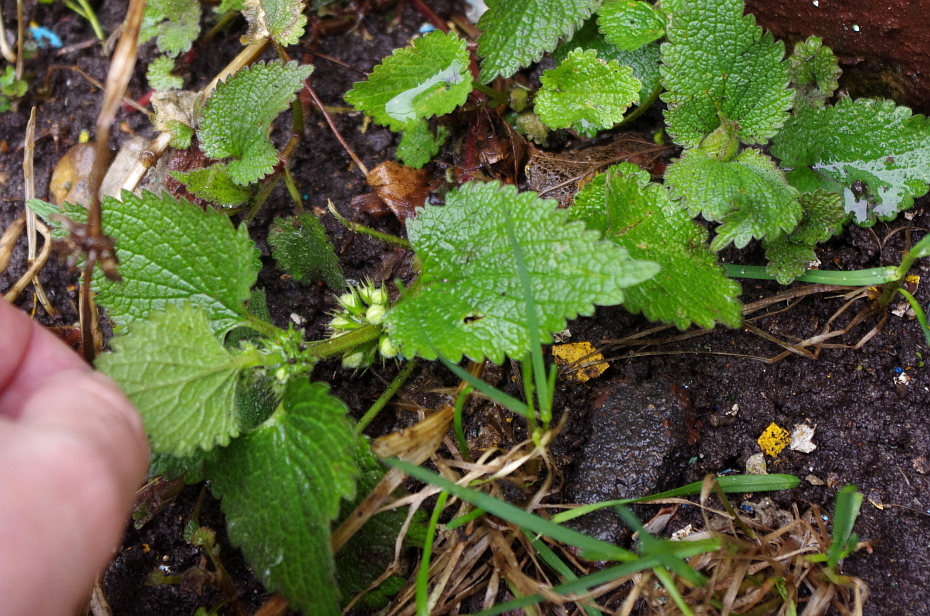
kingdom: Plantae
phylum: Tracheophyta
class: Magnoliopsida
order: Lamiales
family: Lamiaceae
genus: Lamium
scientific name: Lamium album
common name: White dead-nettle
